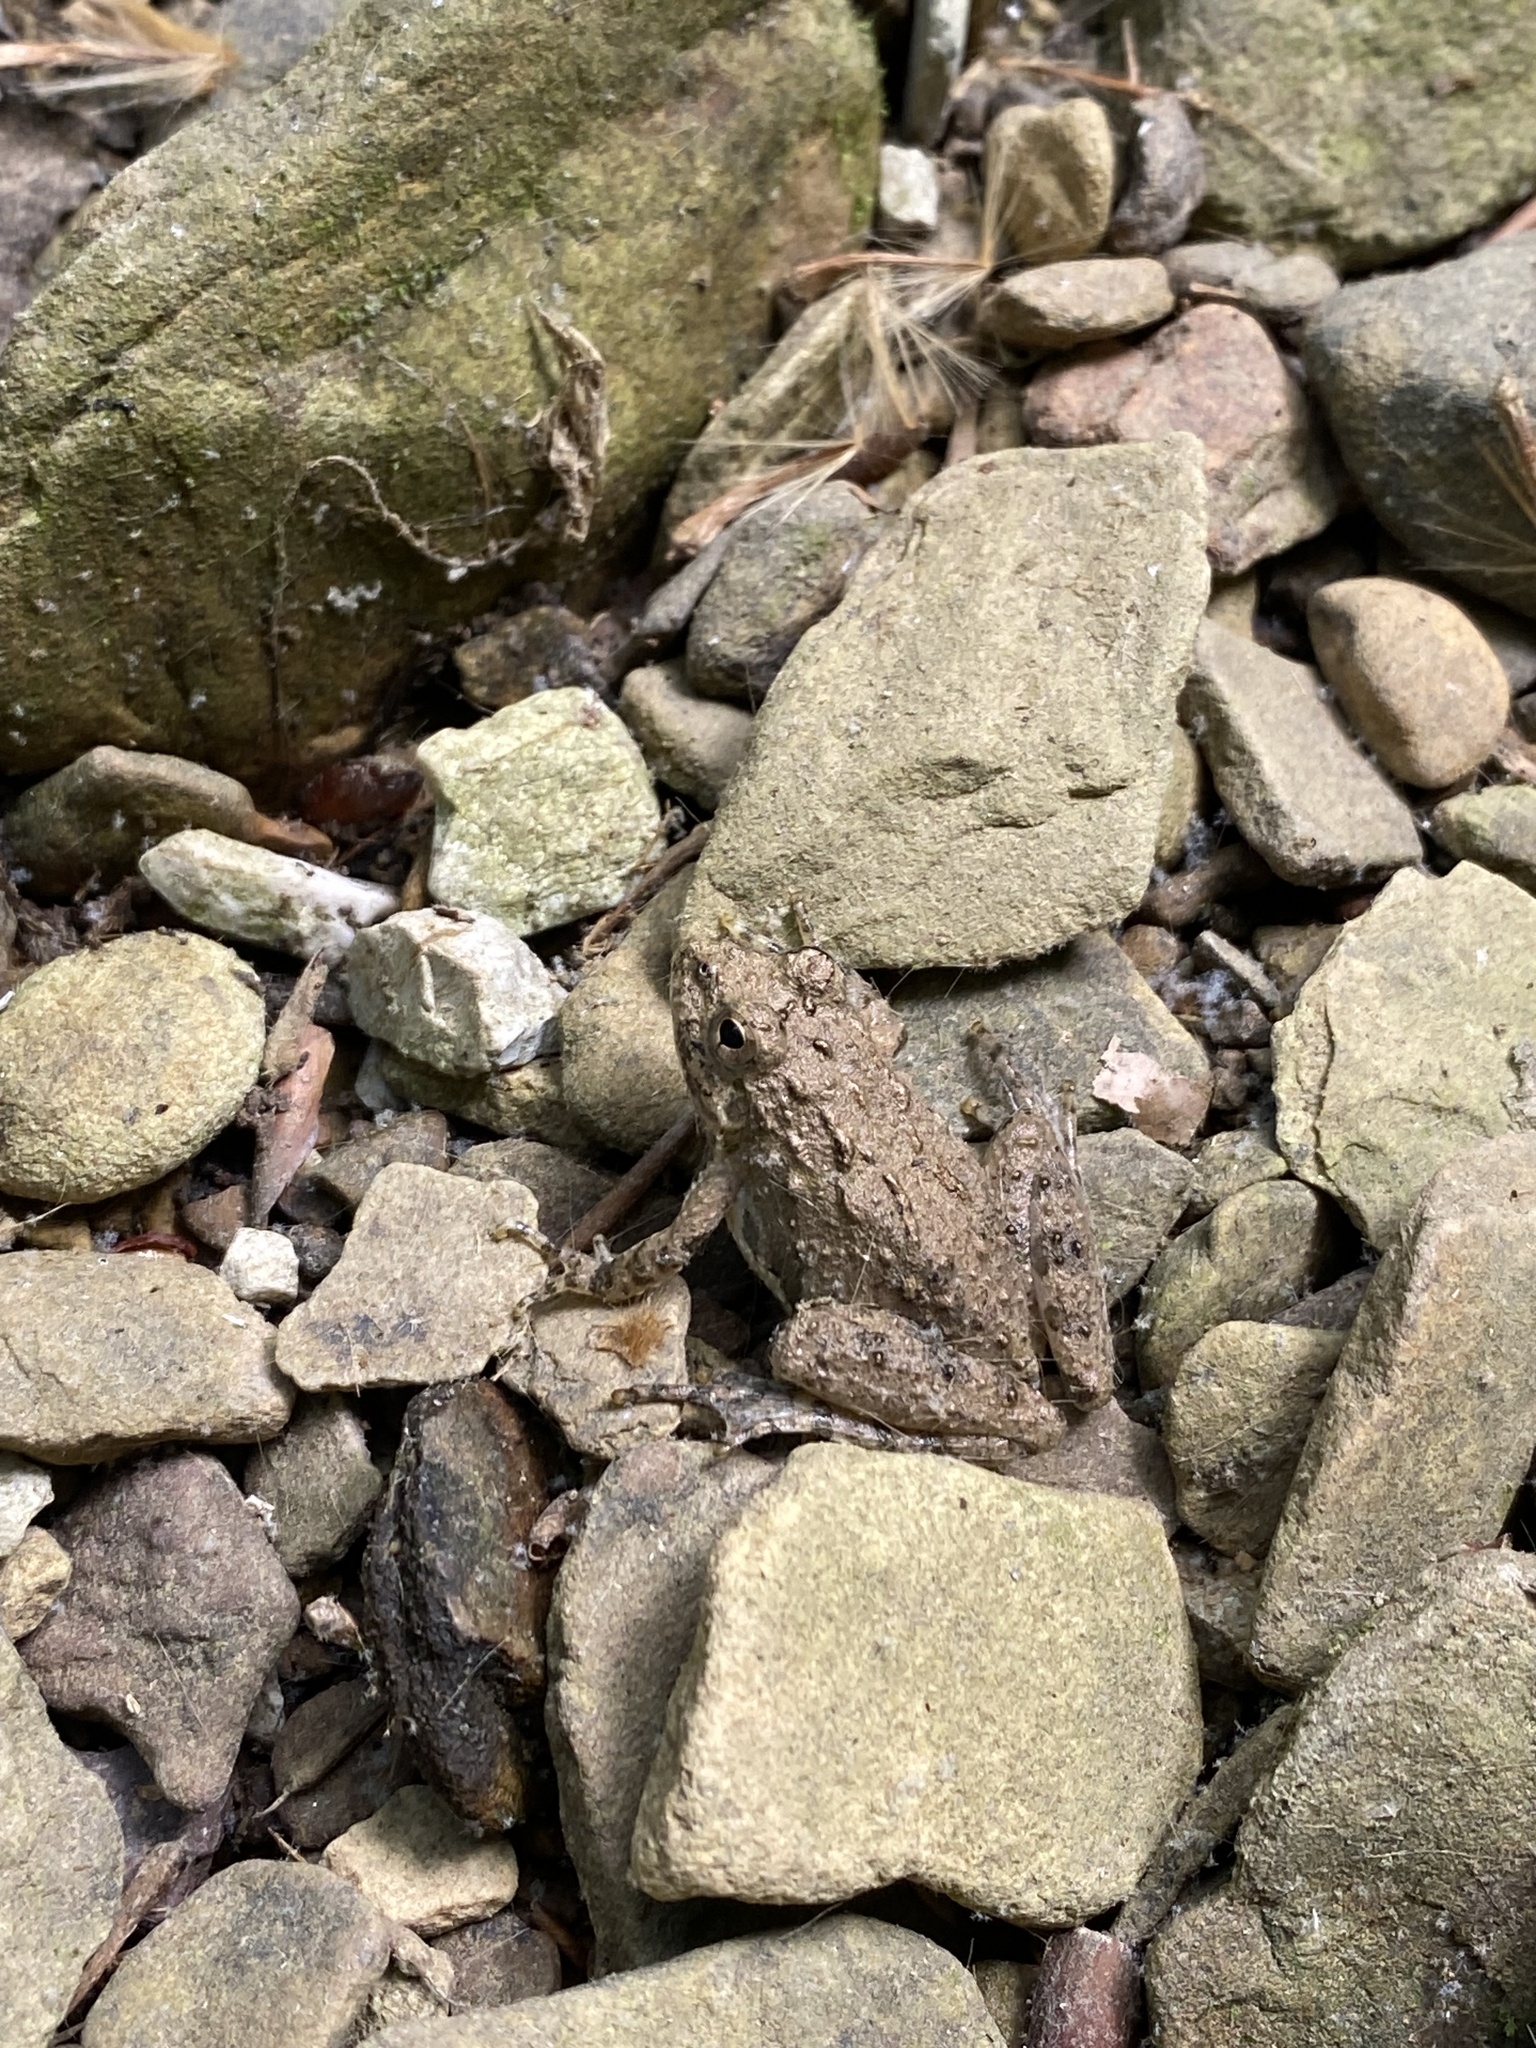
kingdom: Animalia
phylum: Chordata
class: Amphibia
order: Anura
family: Hylidae
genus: Acris
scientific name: Acris blanchardi
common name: Blanchard's cricket frog
